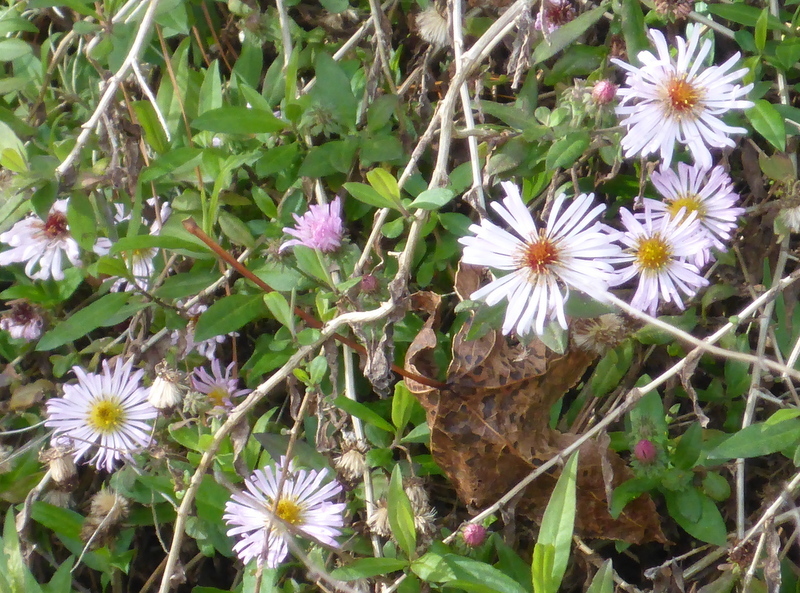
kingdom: Plantae
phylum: Tracheophyta
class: Magnoliopsida
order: Asterales
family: Asteraceae
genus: Ampelaster
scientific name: Ampelaster carolinianus
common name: Climbing aster
